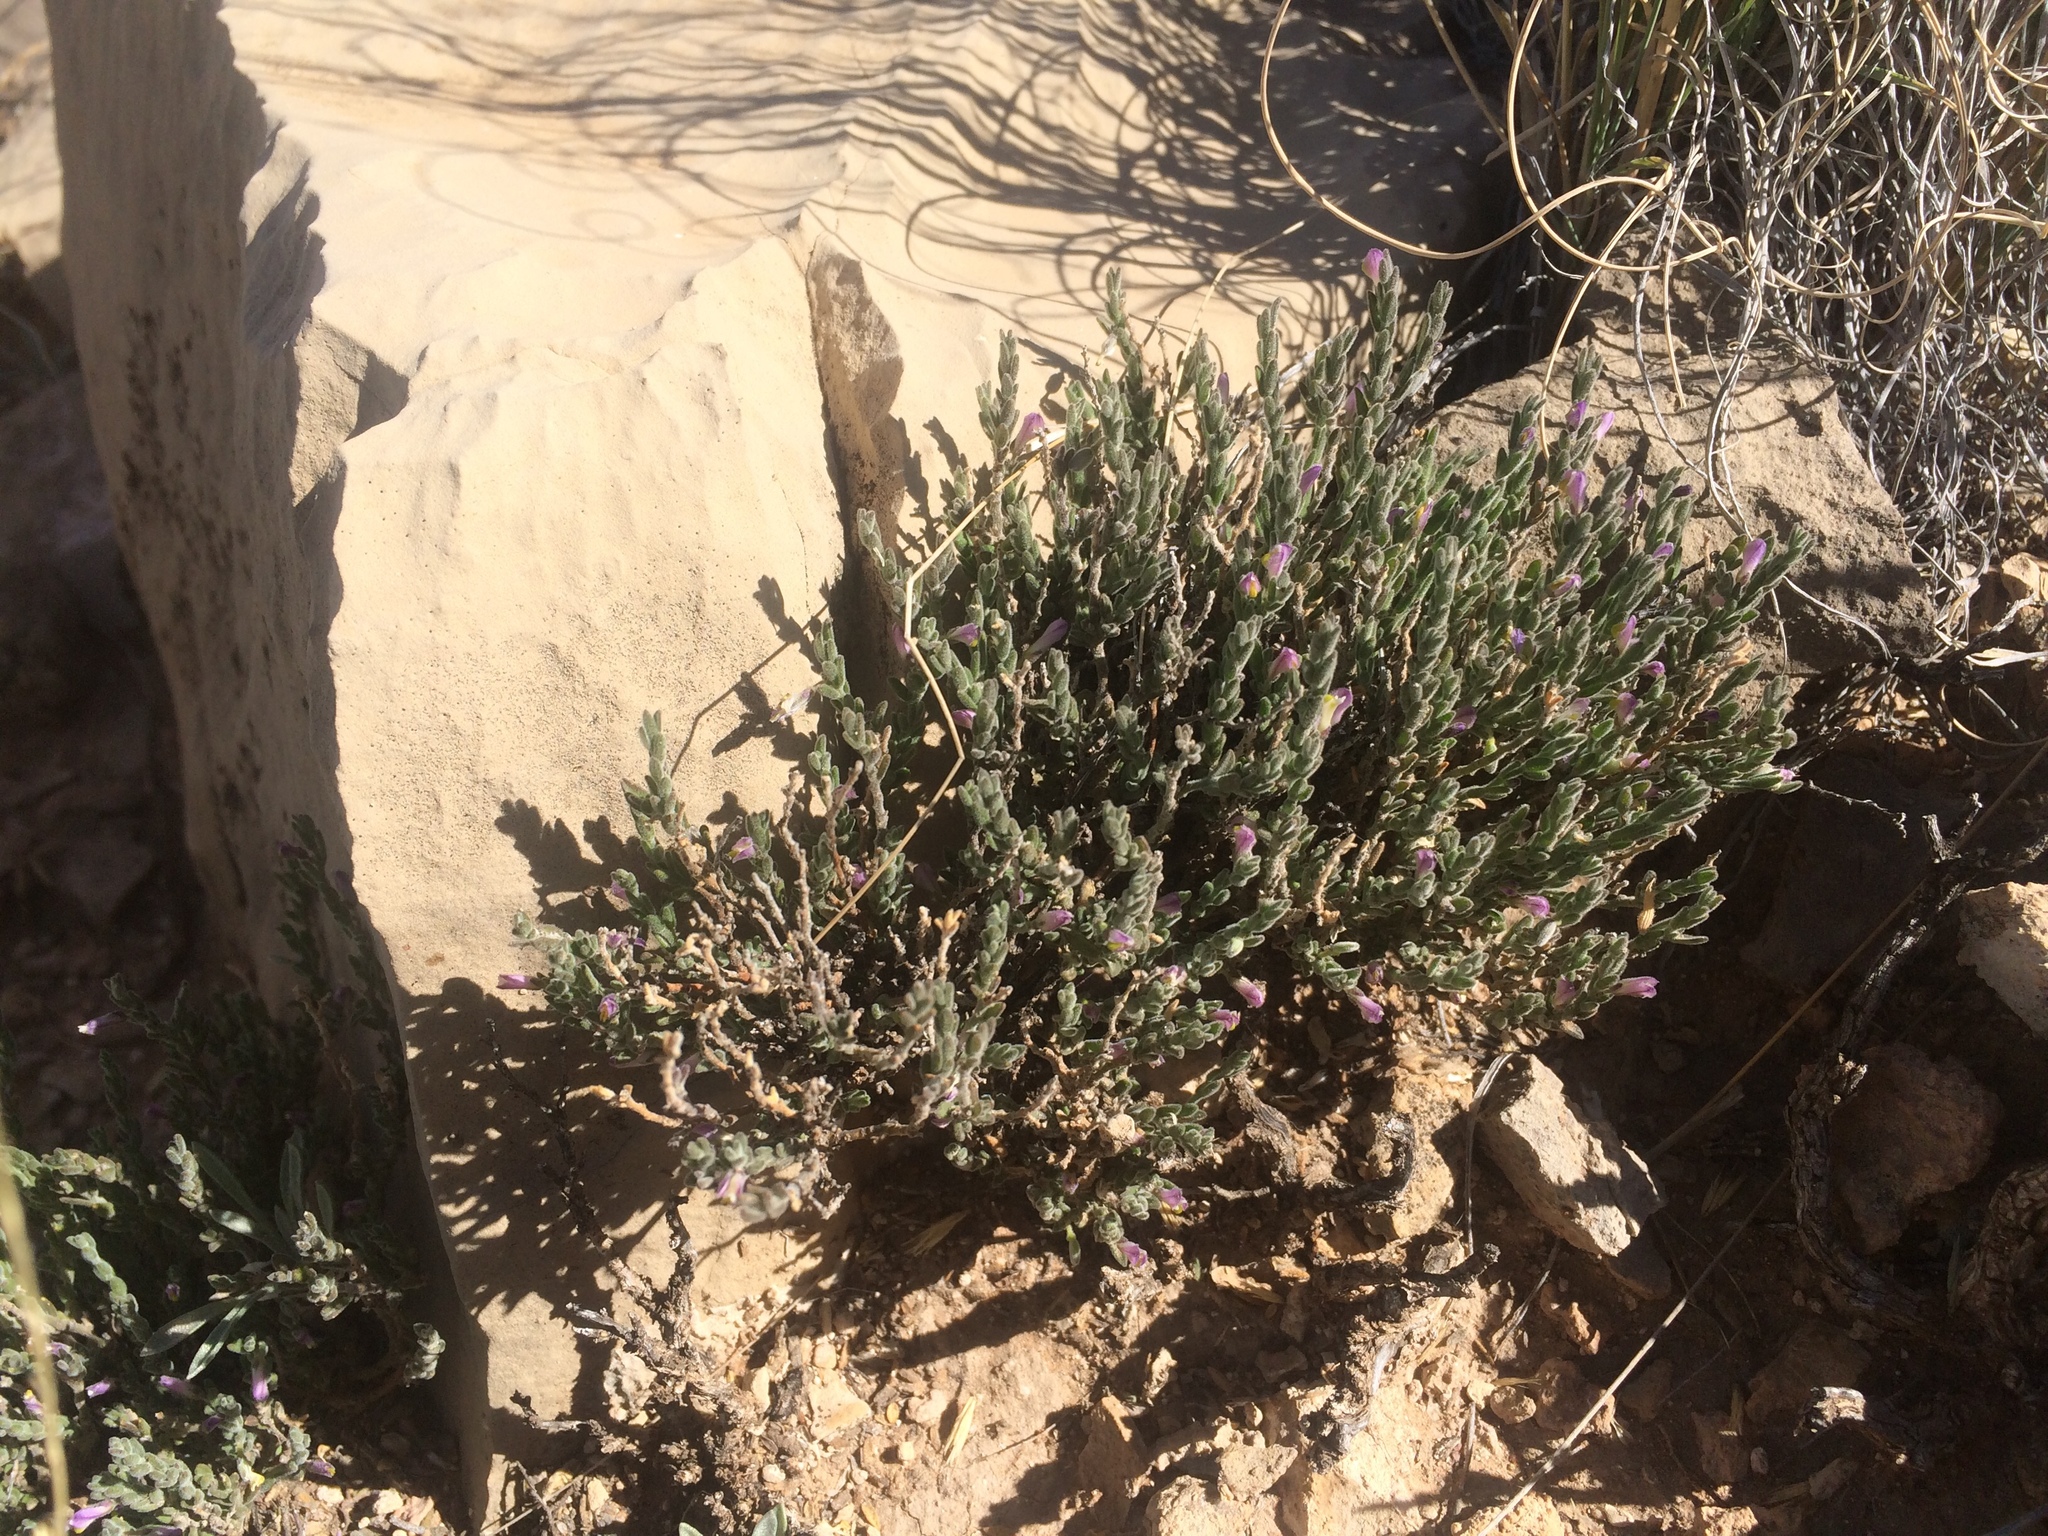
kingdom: Plantae
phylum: Tracheophyta
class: Magnoliopsida
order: Fabales
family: Polygalaceae
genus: Hebecarpa
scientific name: Hebecarpa macradenia
